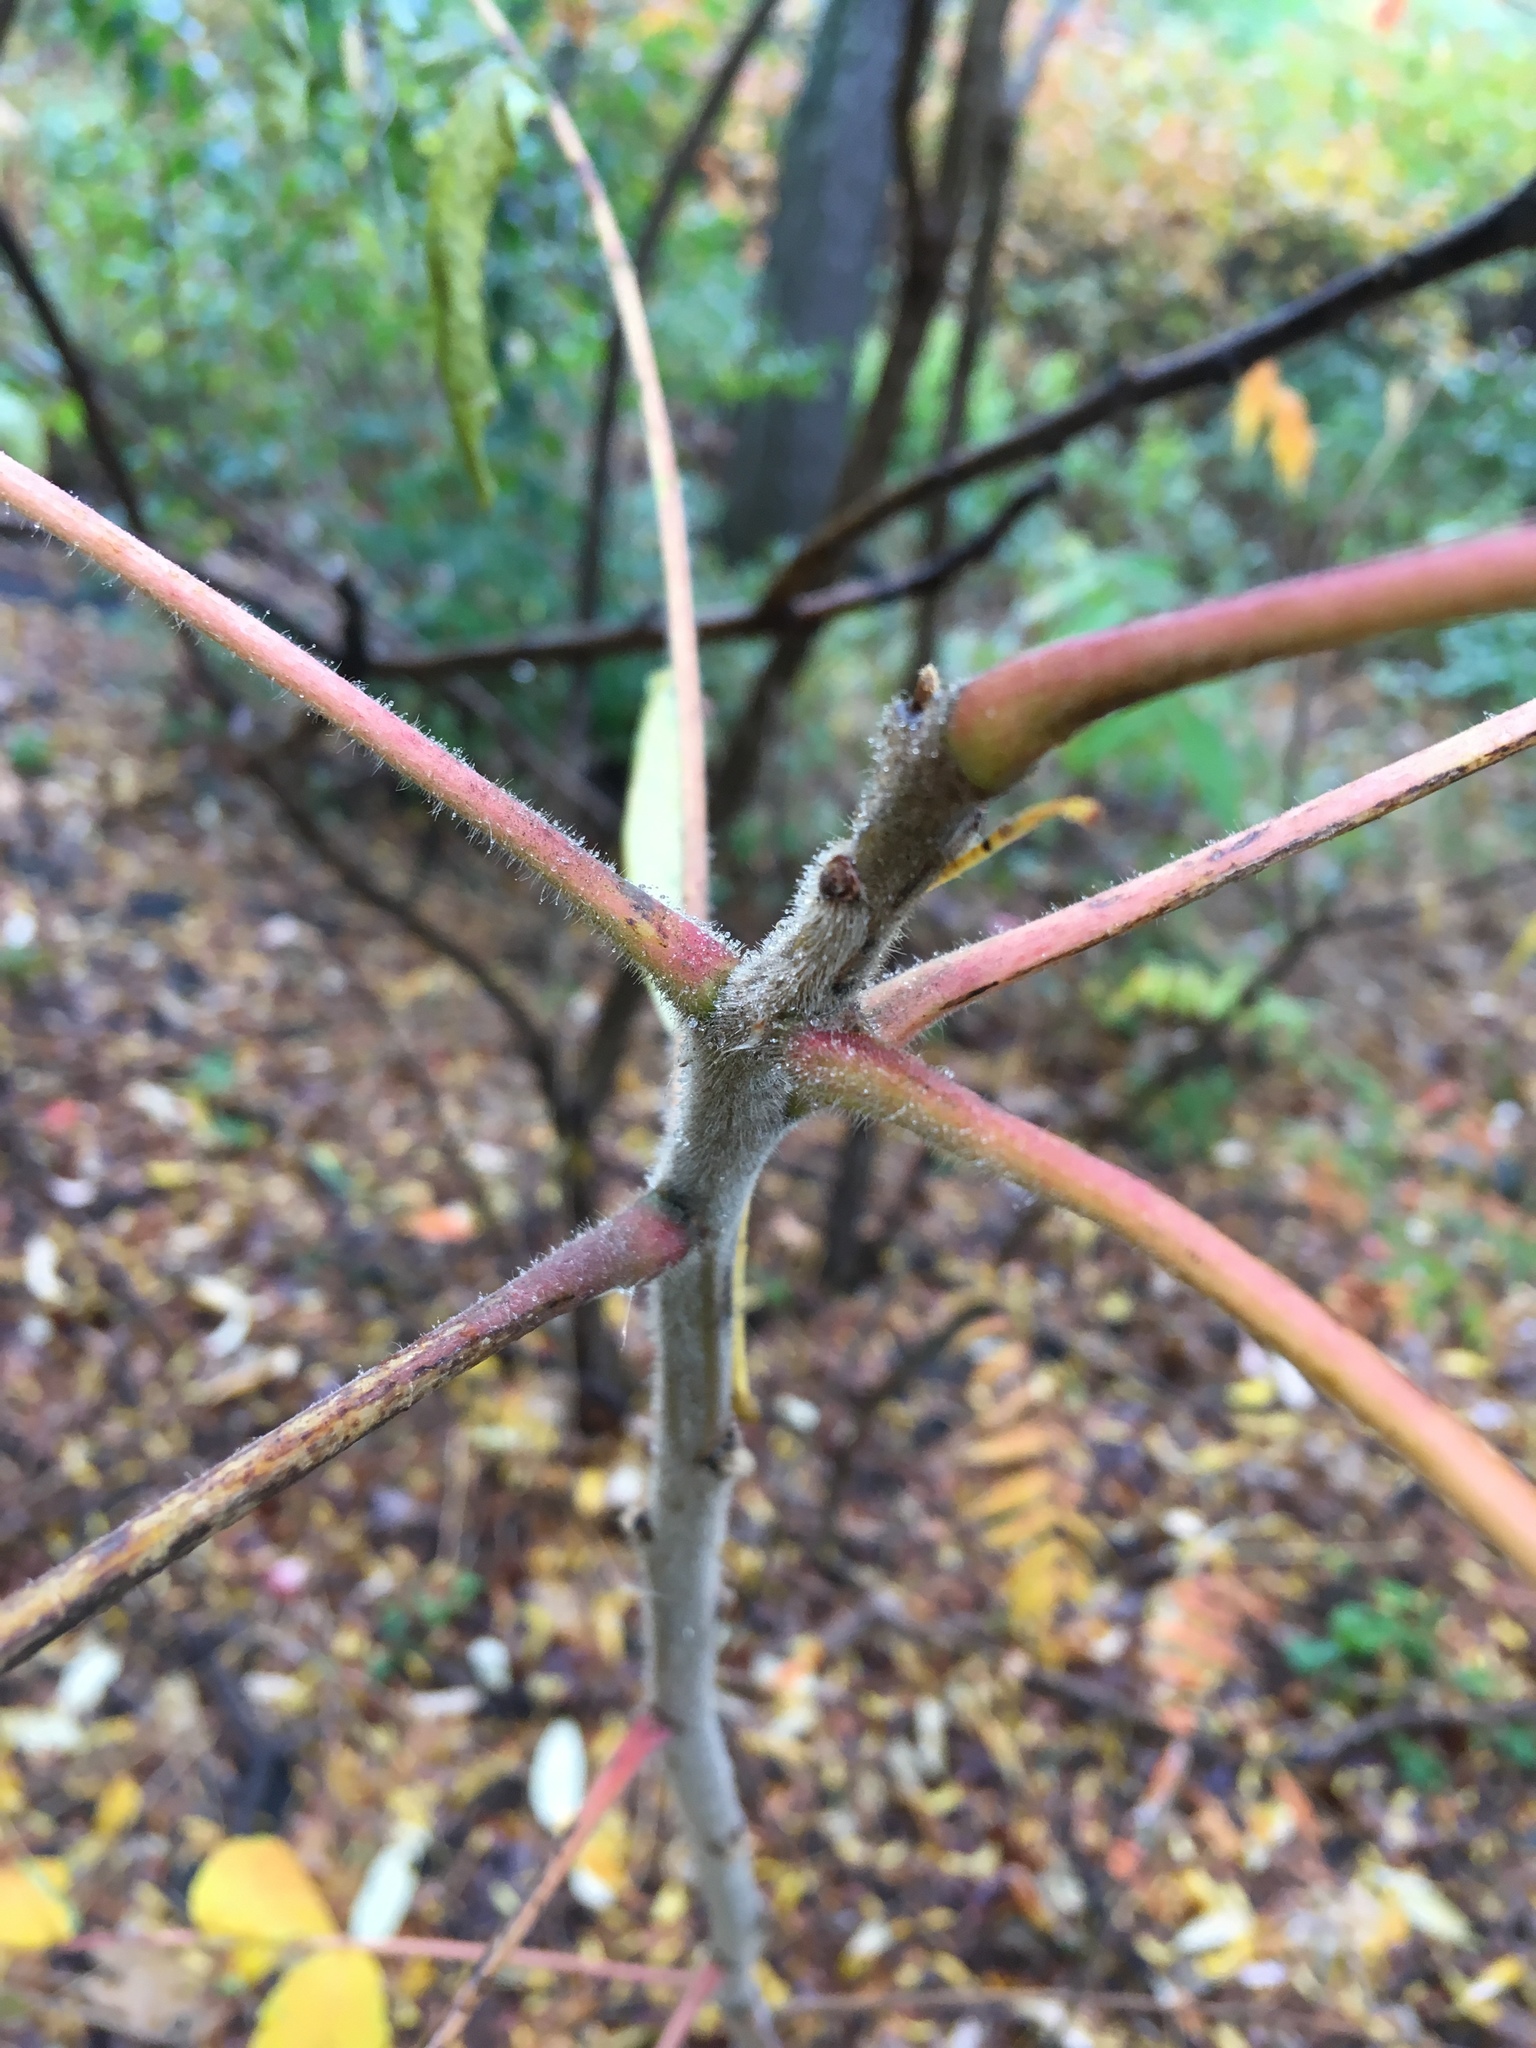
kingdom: Plantae
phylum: Tracheophyta
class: Magnoliopsida
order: Sapindales
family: Anacardiaceae
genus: Rhus
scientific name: Rhus typhina
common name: Staghorn sumac
